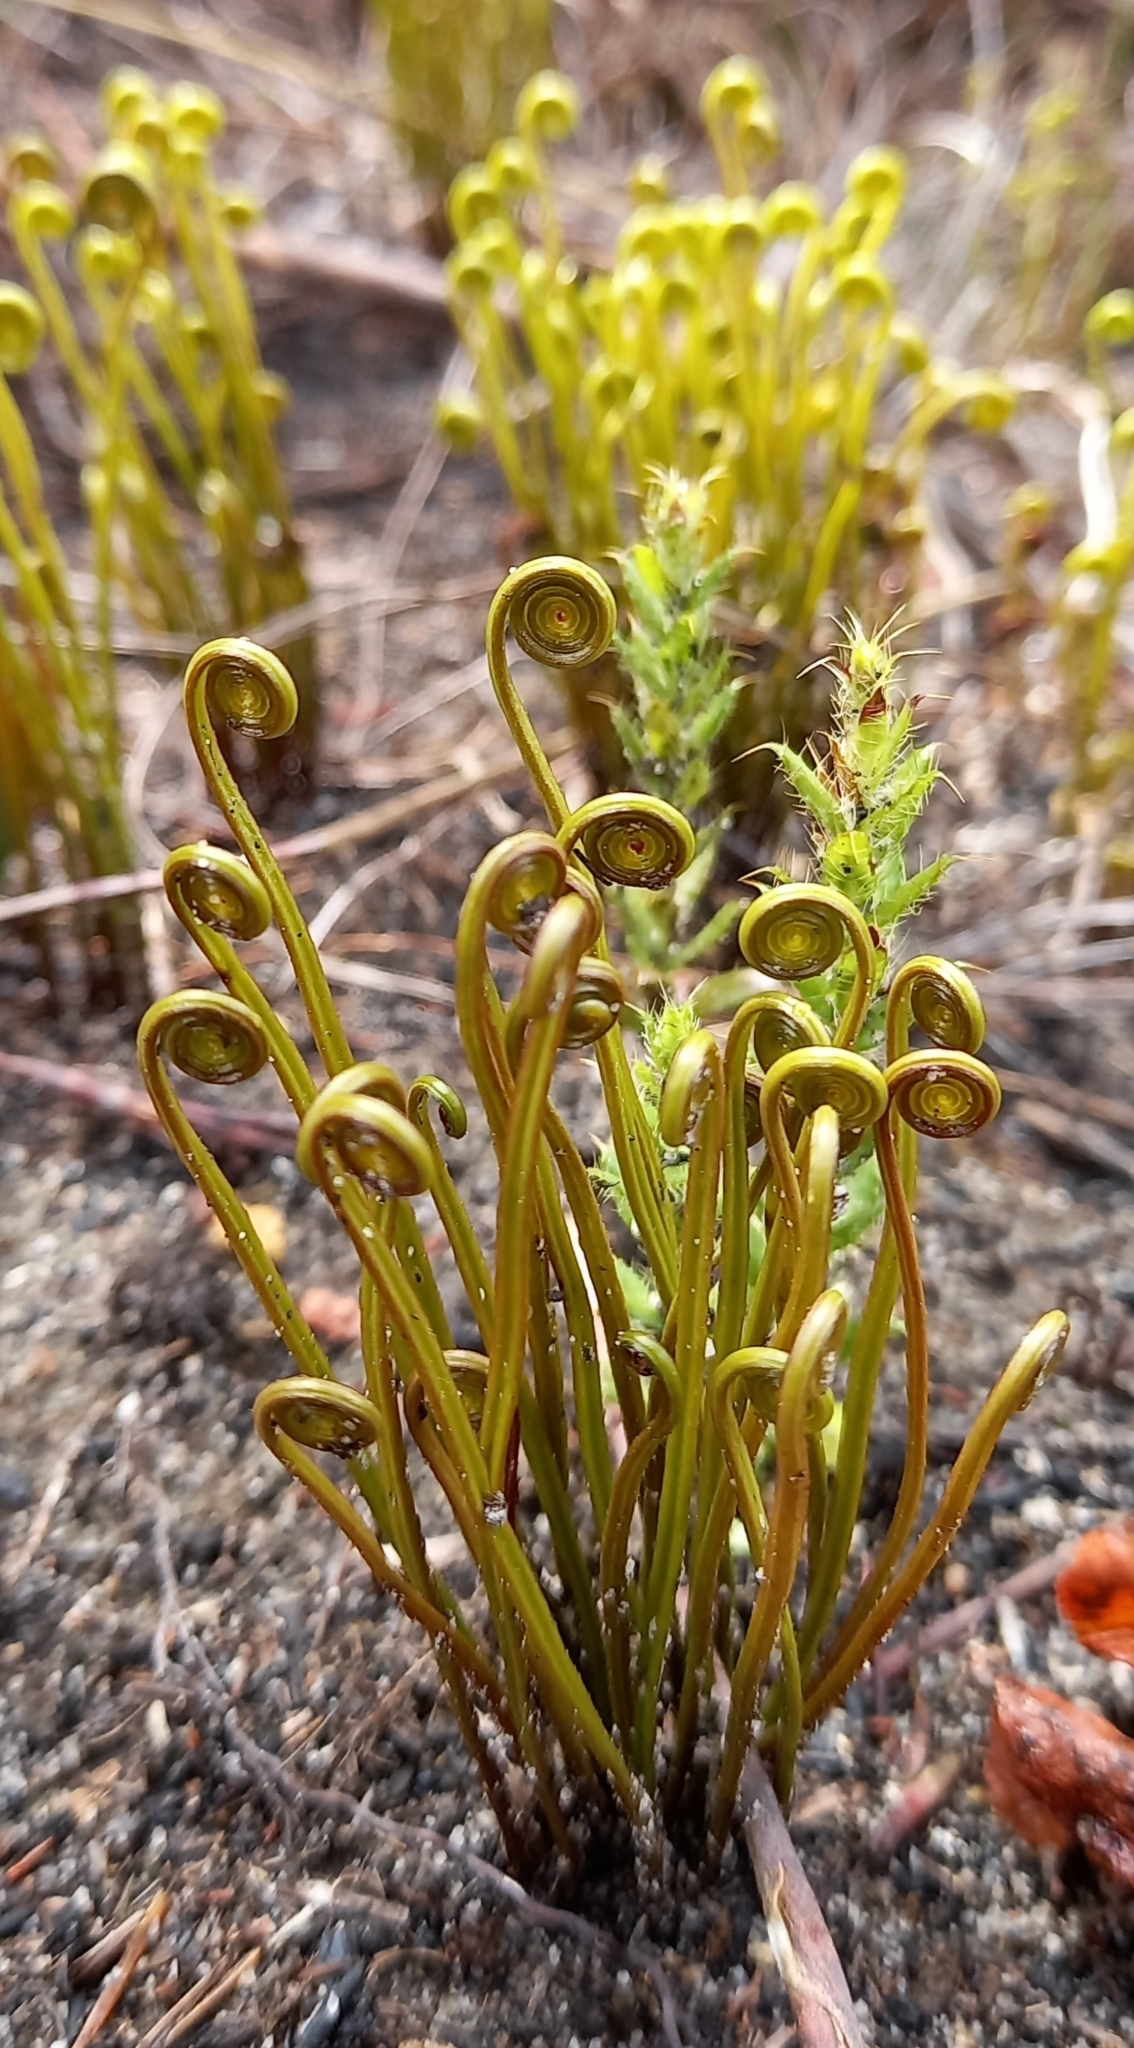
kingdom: Plantae
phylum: Tracheophyta
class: Polypodiopsida
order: Schizaeales
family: Schizaeaceae
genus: Schizaea
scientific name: Schizaea pectinata
